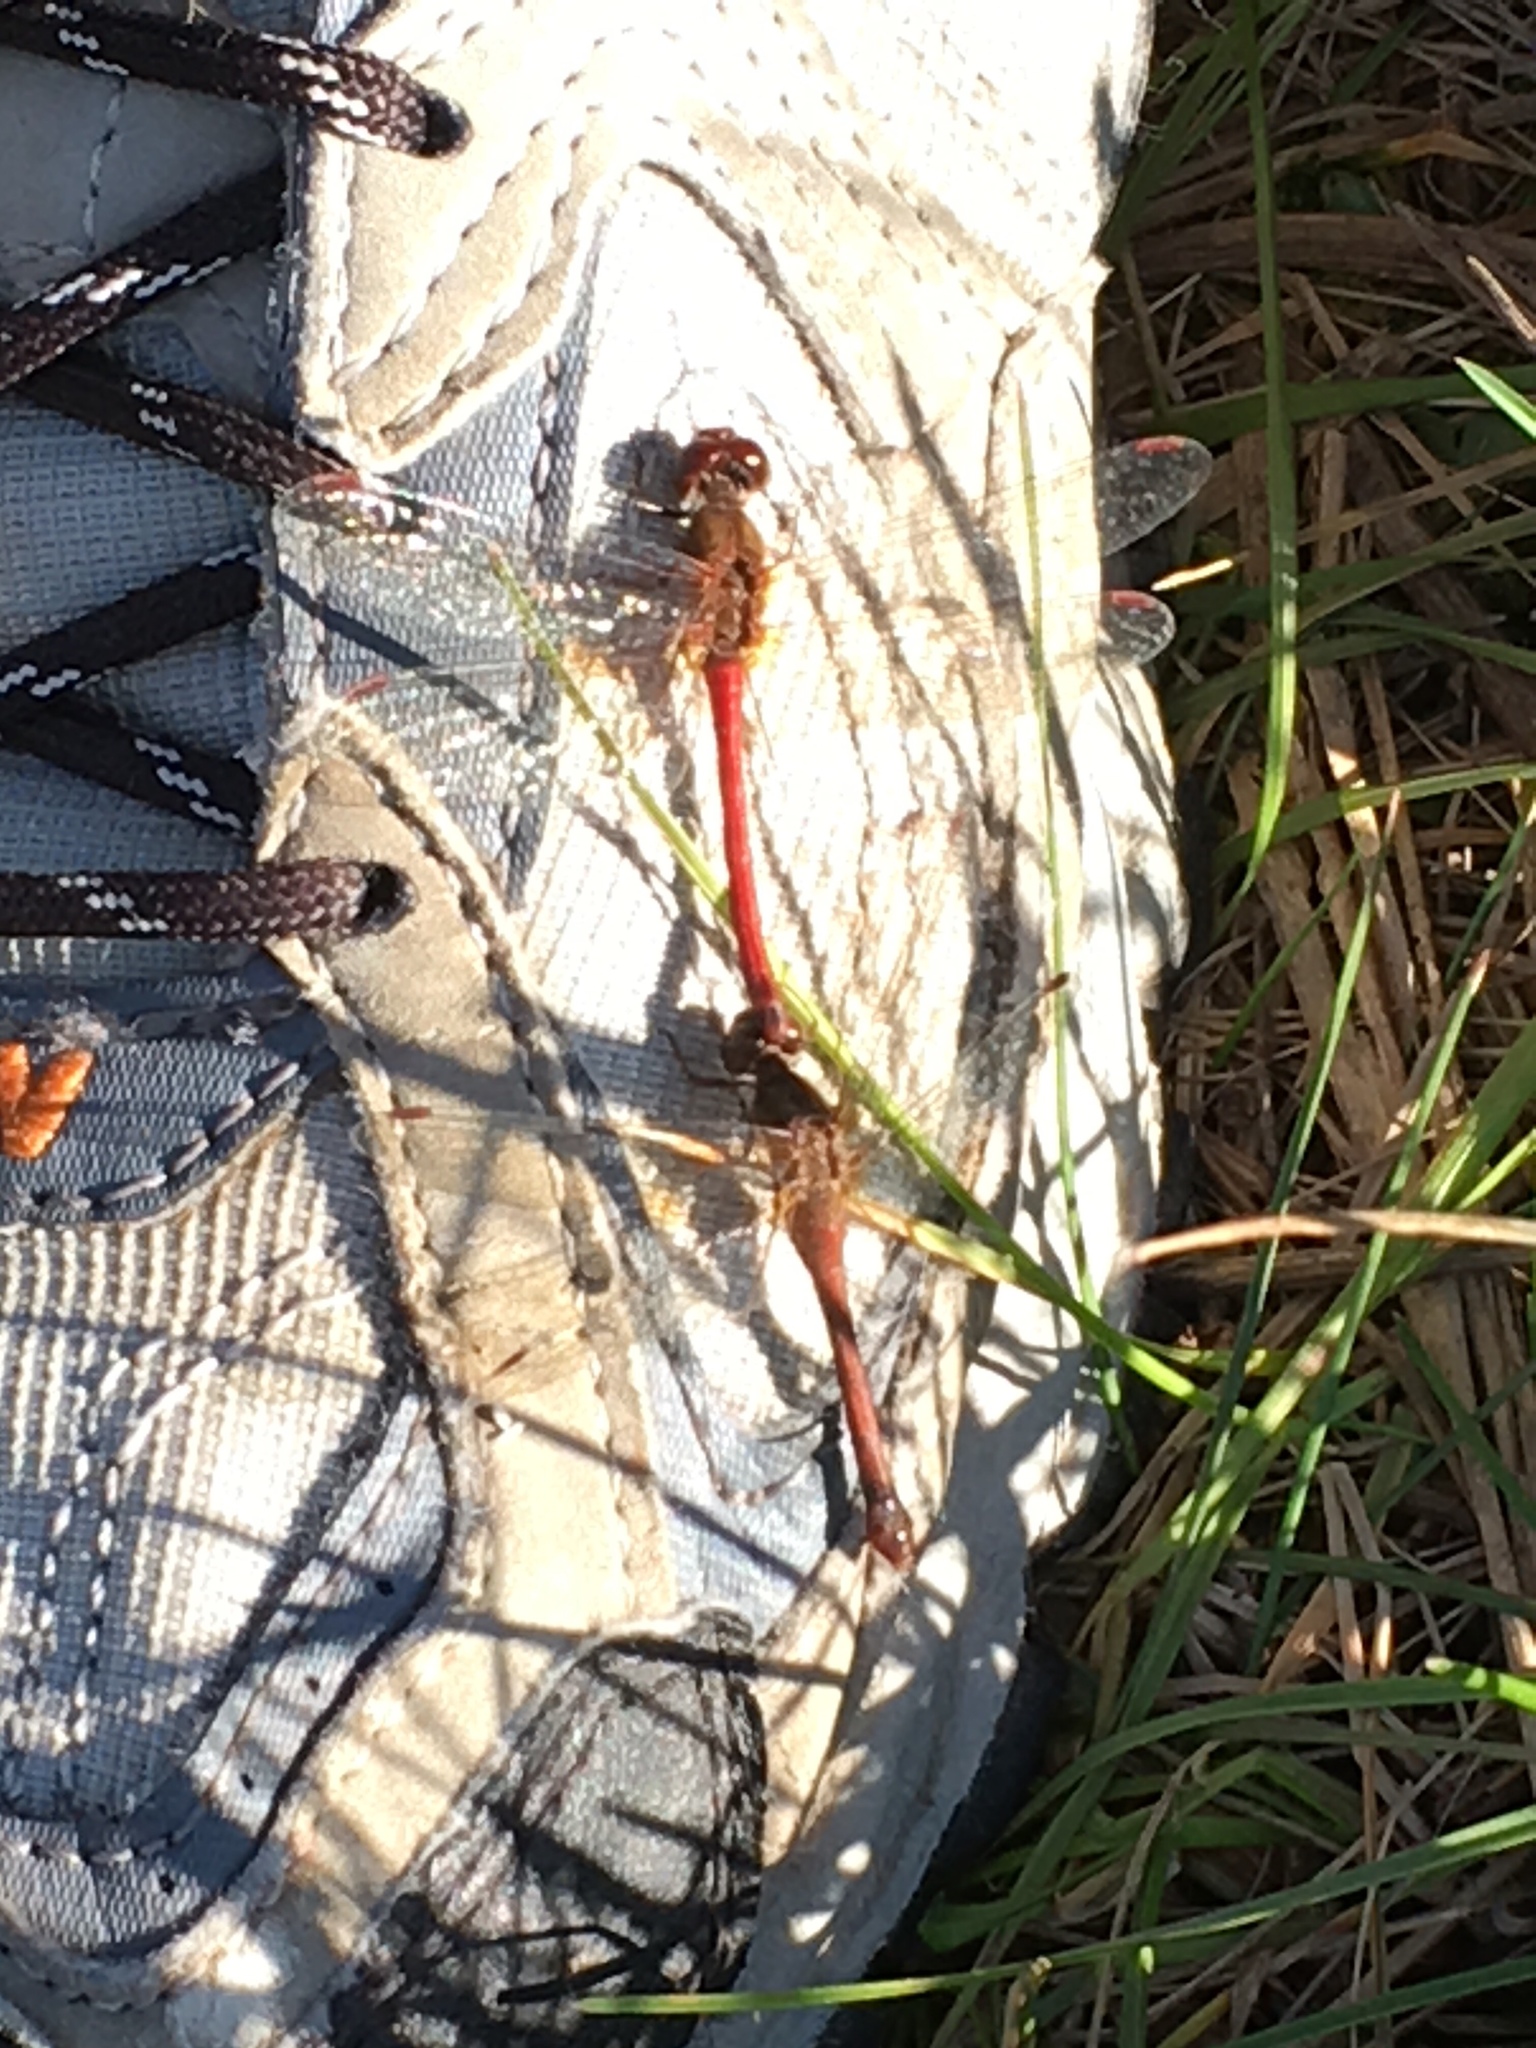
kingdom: Animalia
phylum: Arthropoda
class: Insecta
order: Odonata
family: Libellulidae
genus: Sympetrum
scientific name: Sympetrum vicinum
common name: Autumn meadowhawk
